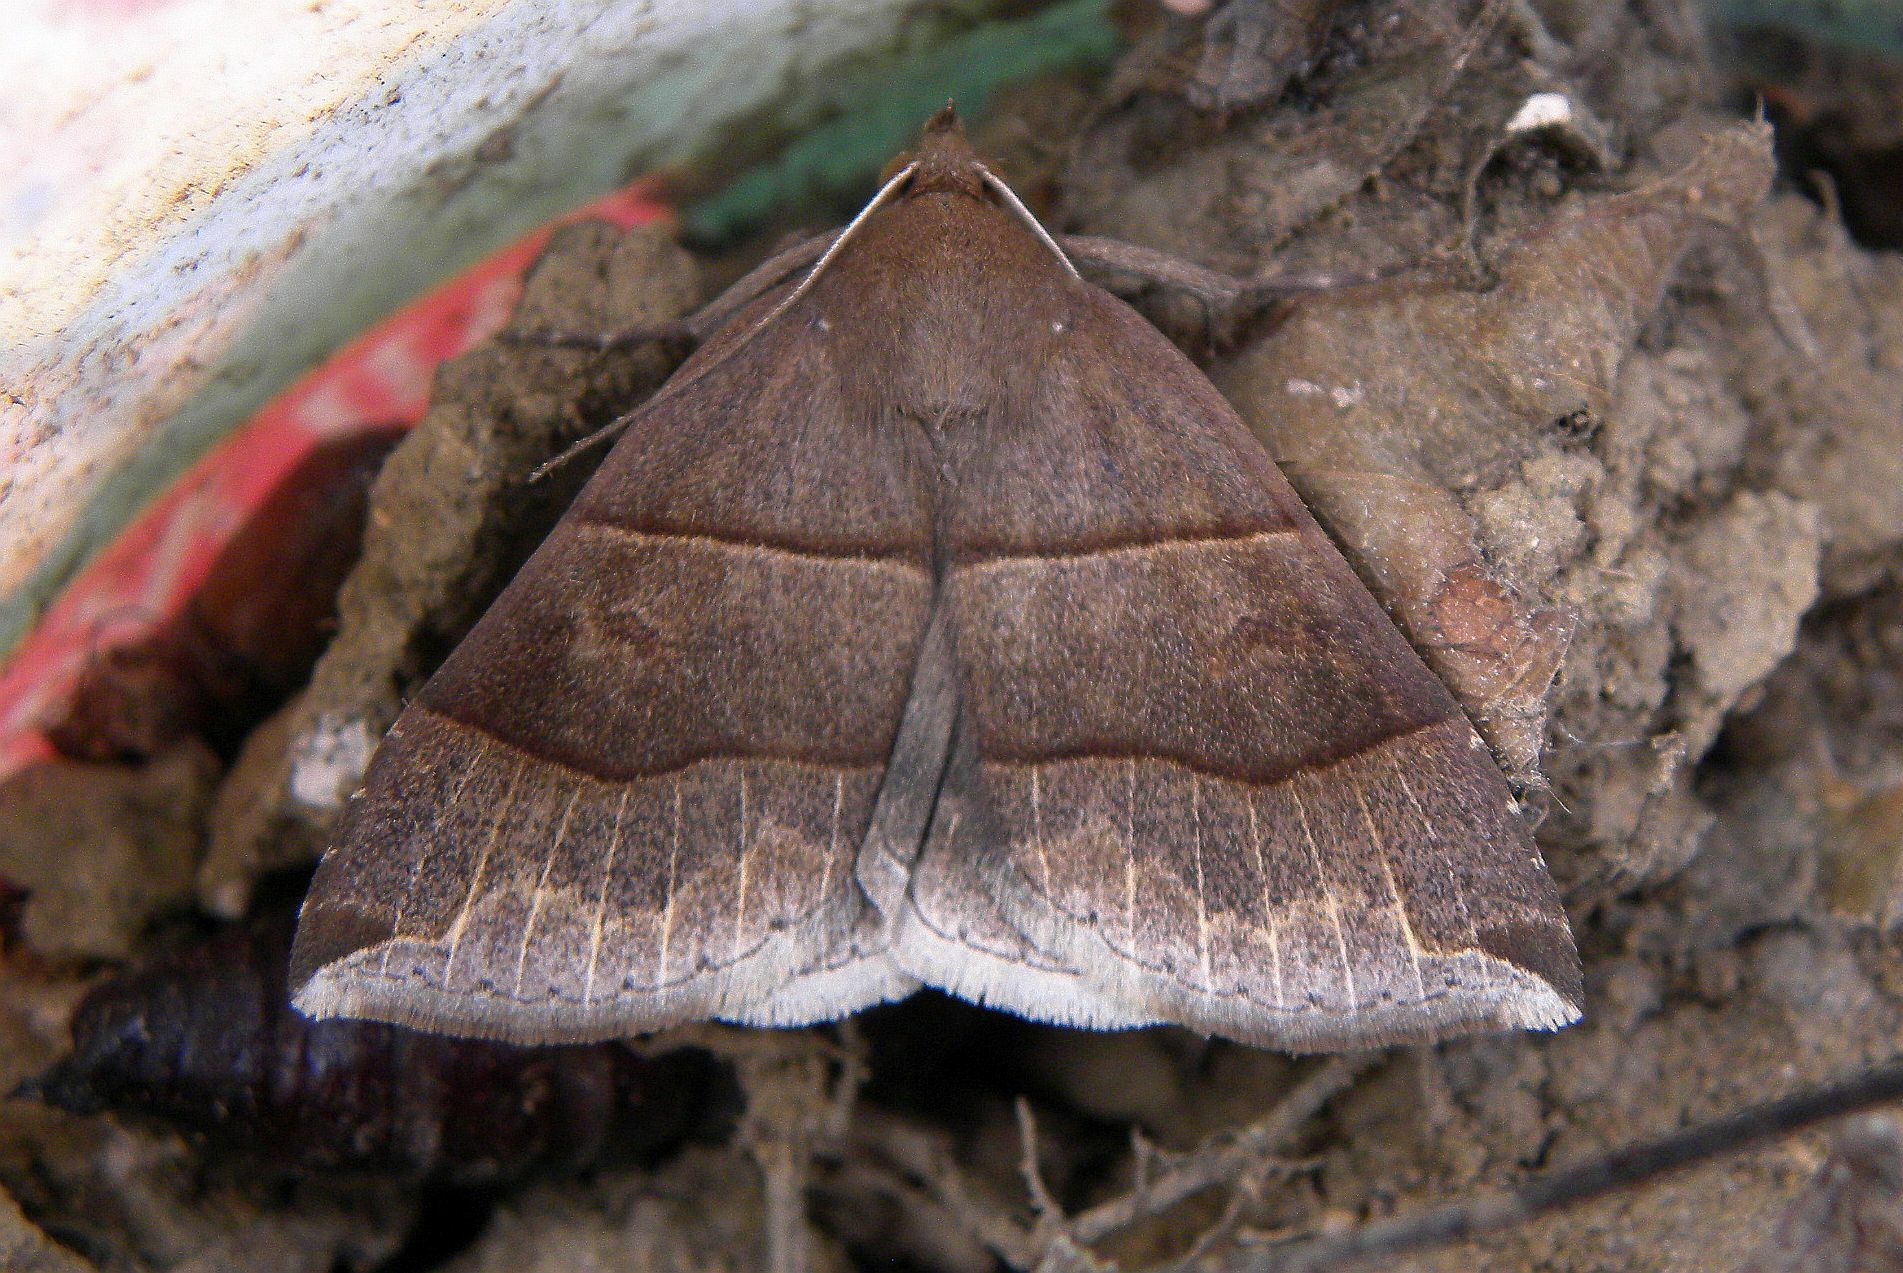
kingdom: Animalia
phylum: Arthropoda
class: Insecta
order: Lepidoptera
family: Erebidae
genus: Parallelia
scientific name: Parallelia bistriaris
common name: Maple looper moth
